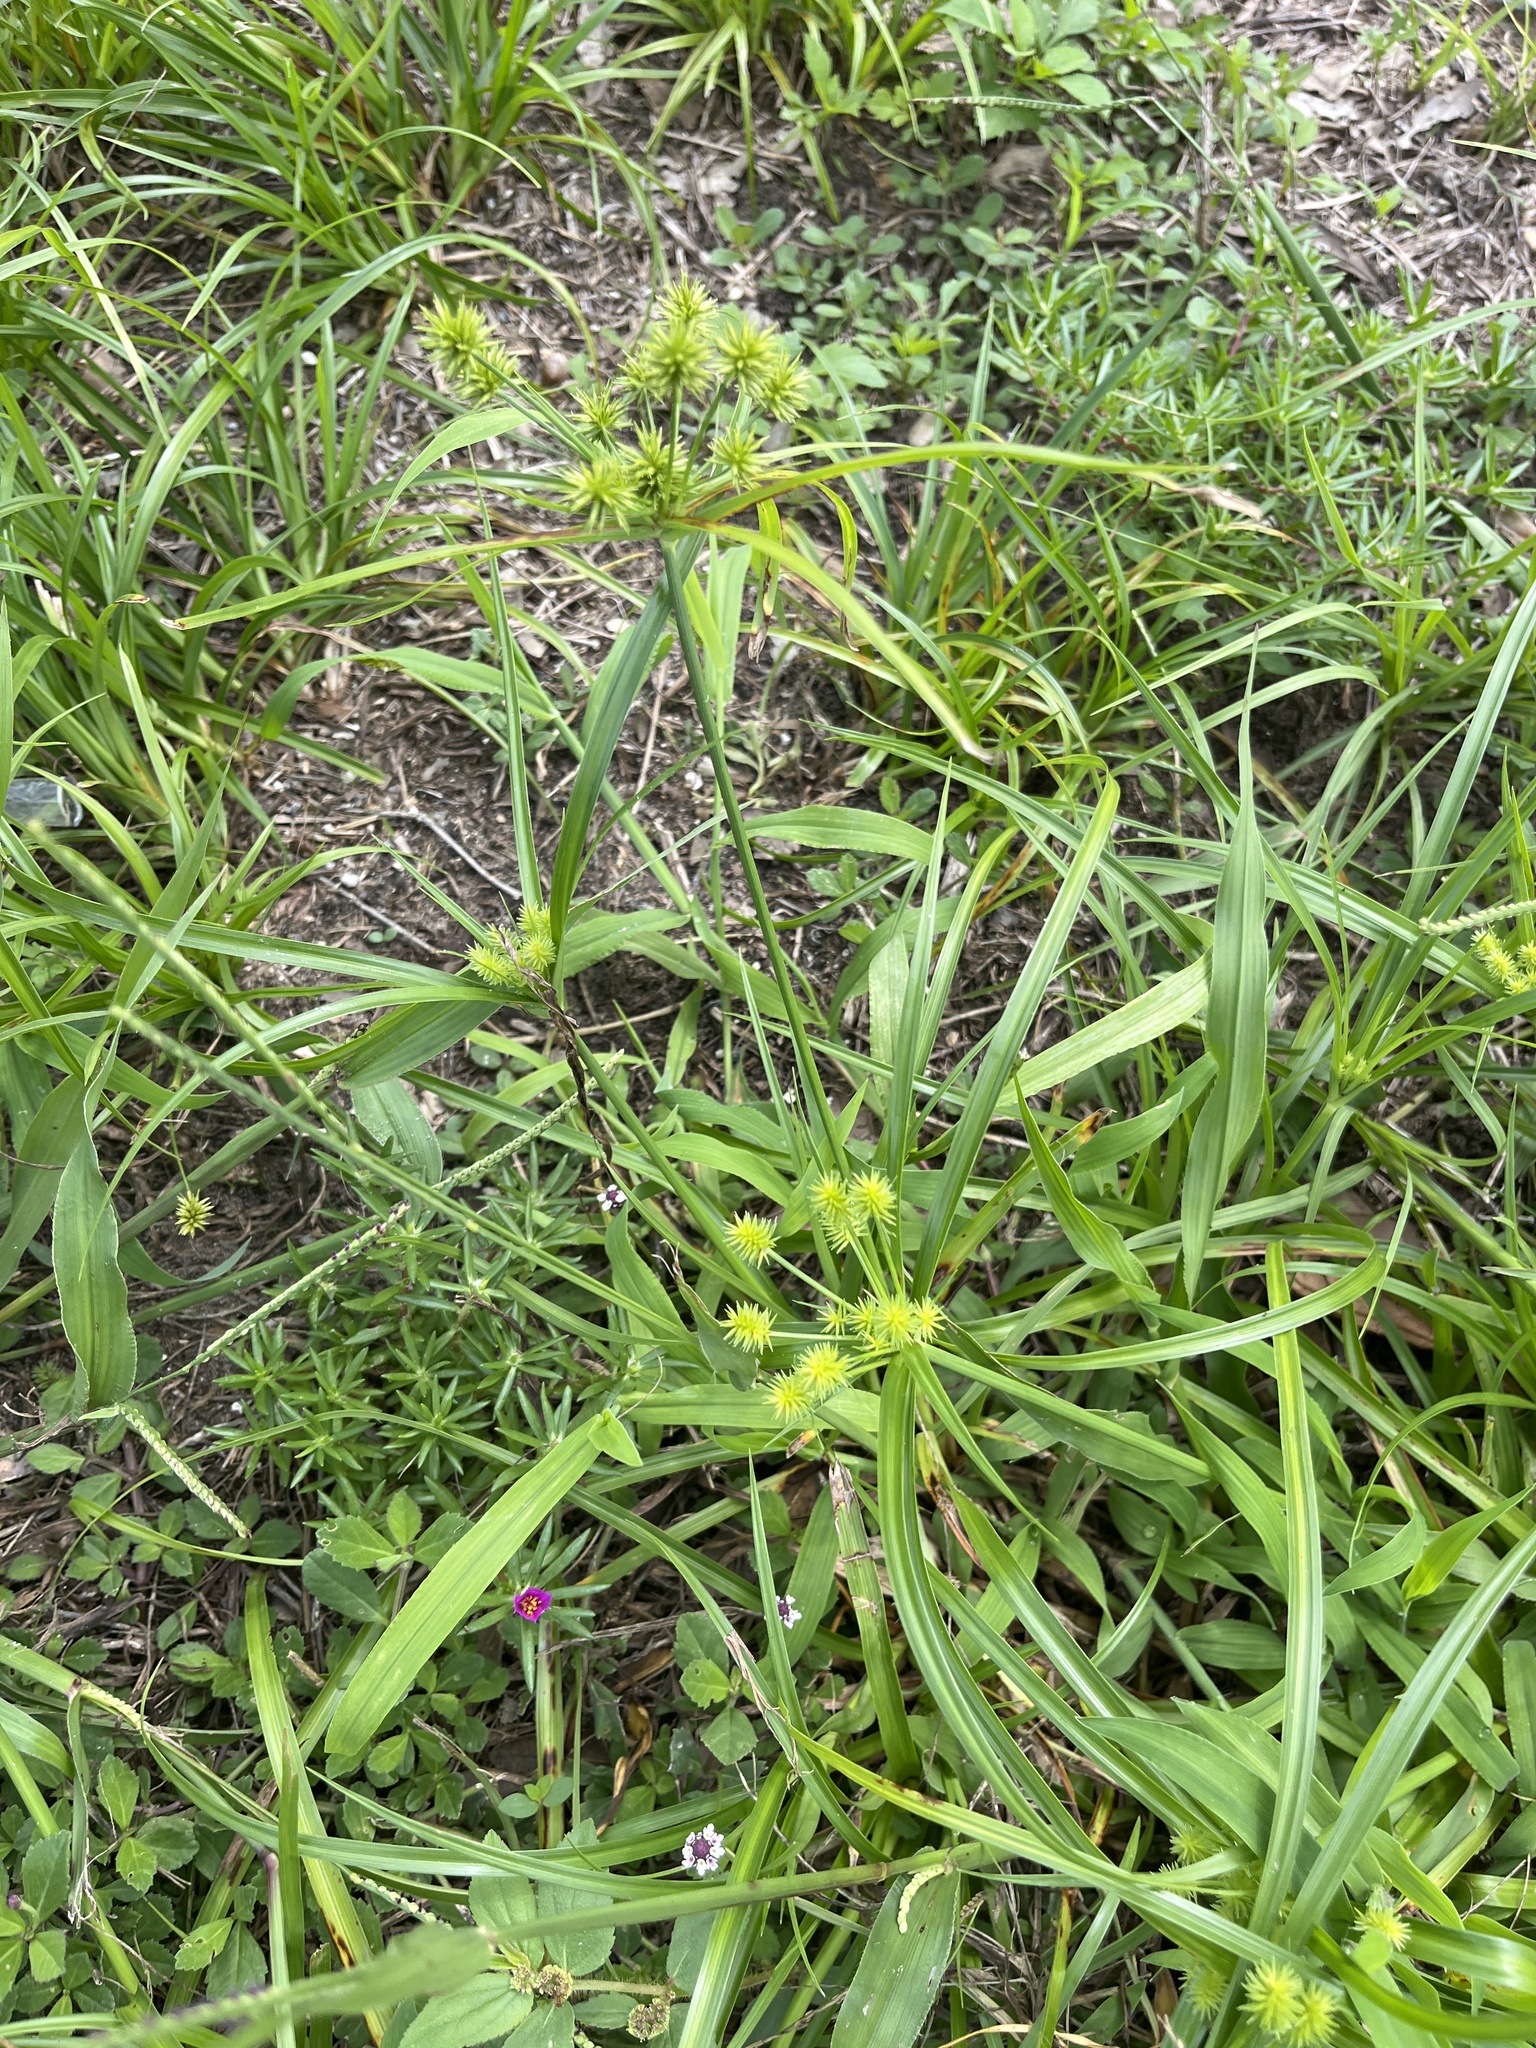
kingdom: Plantae
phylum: Tracheophyta
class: Liliopsida
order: Poales
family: Cyperaceae
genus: Cyperus
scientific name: Cyperus croceus
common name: Baldwin's flatsedge
